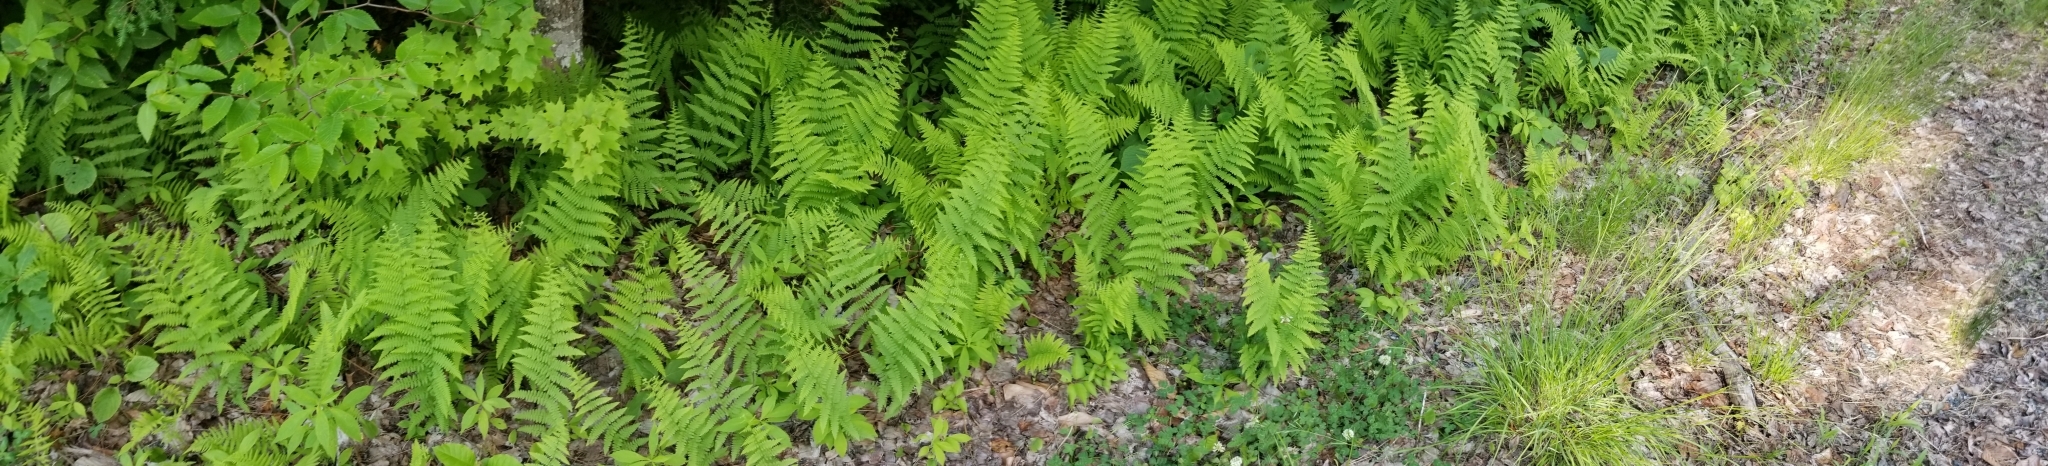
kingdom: Plantae
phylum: Tracheophyta
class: Polypodiopsida
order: Polypodiales
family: Dennstaedtiaceae
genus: Sitobolium
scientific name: Sitobolium punctilobum
